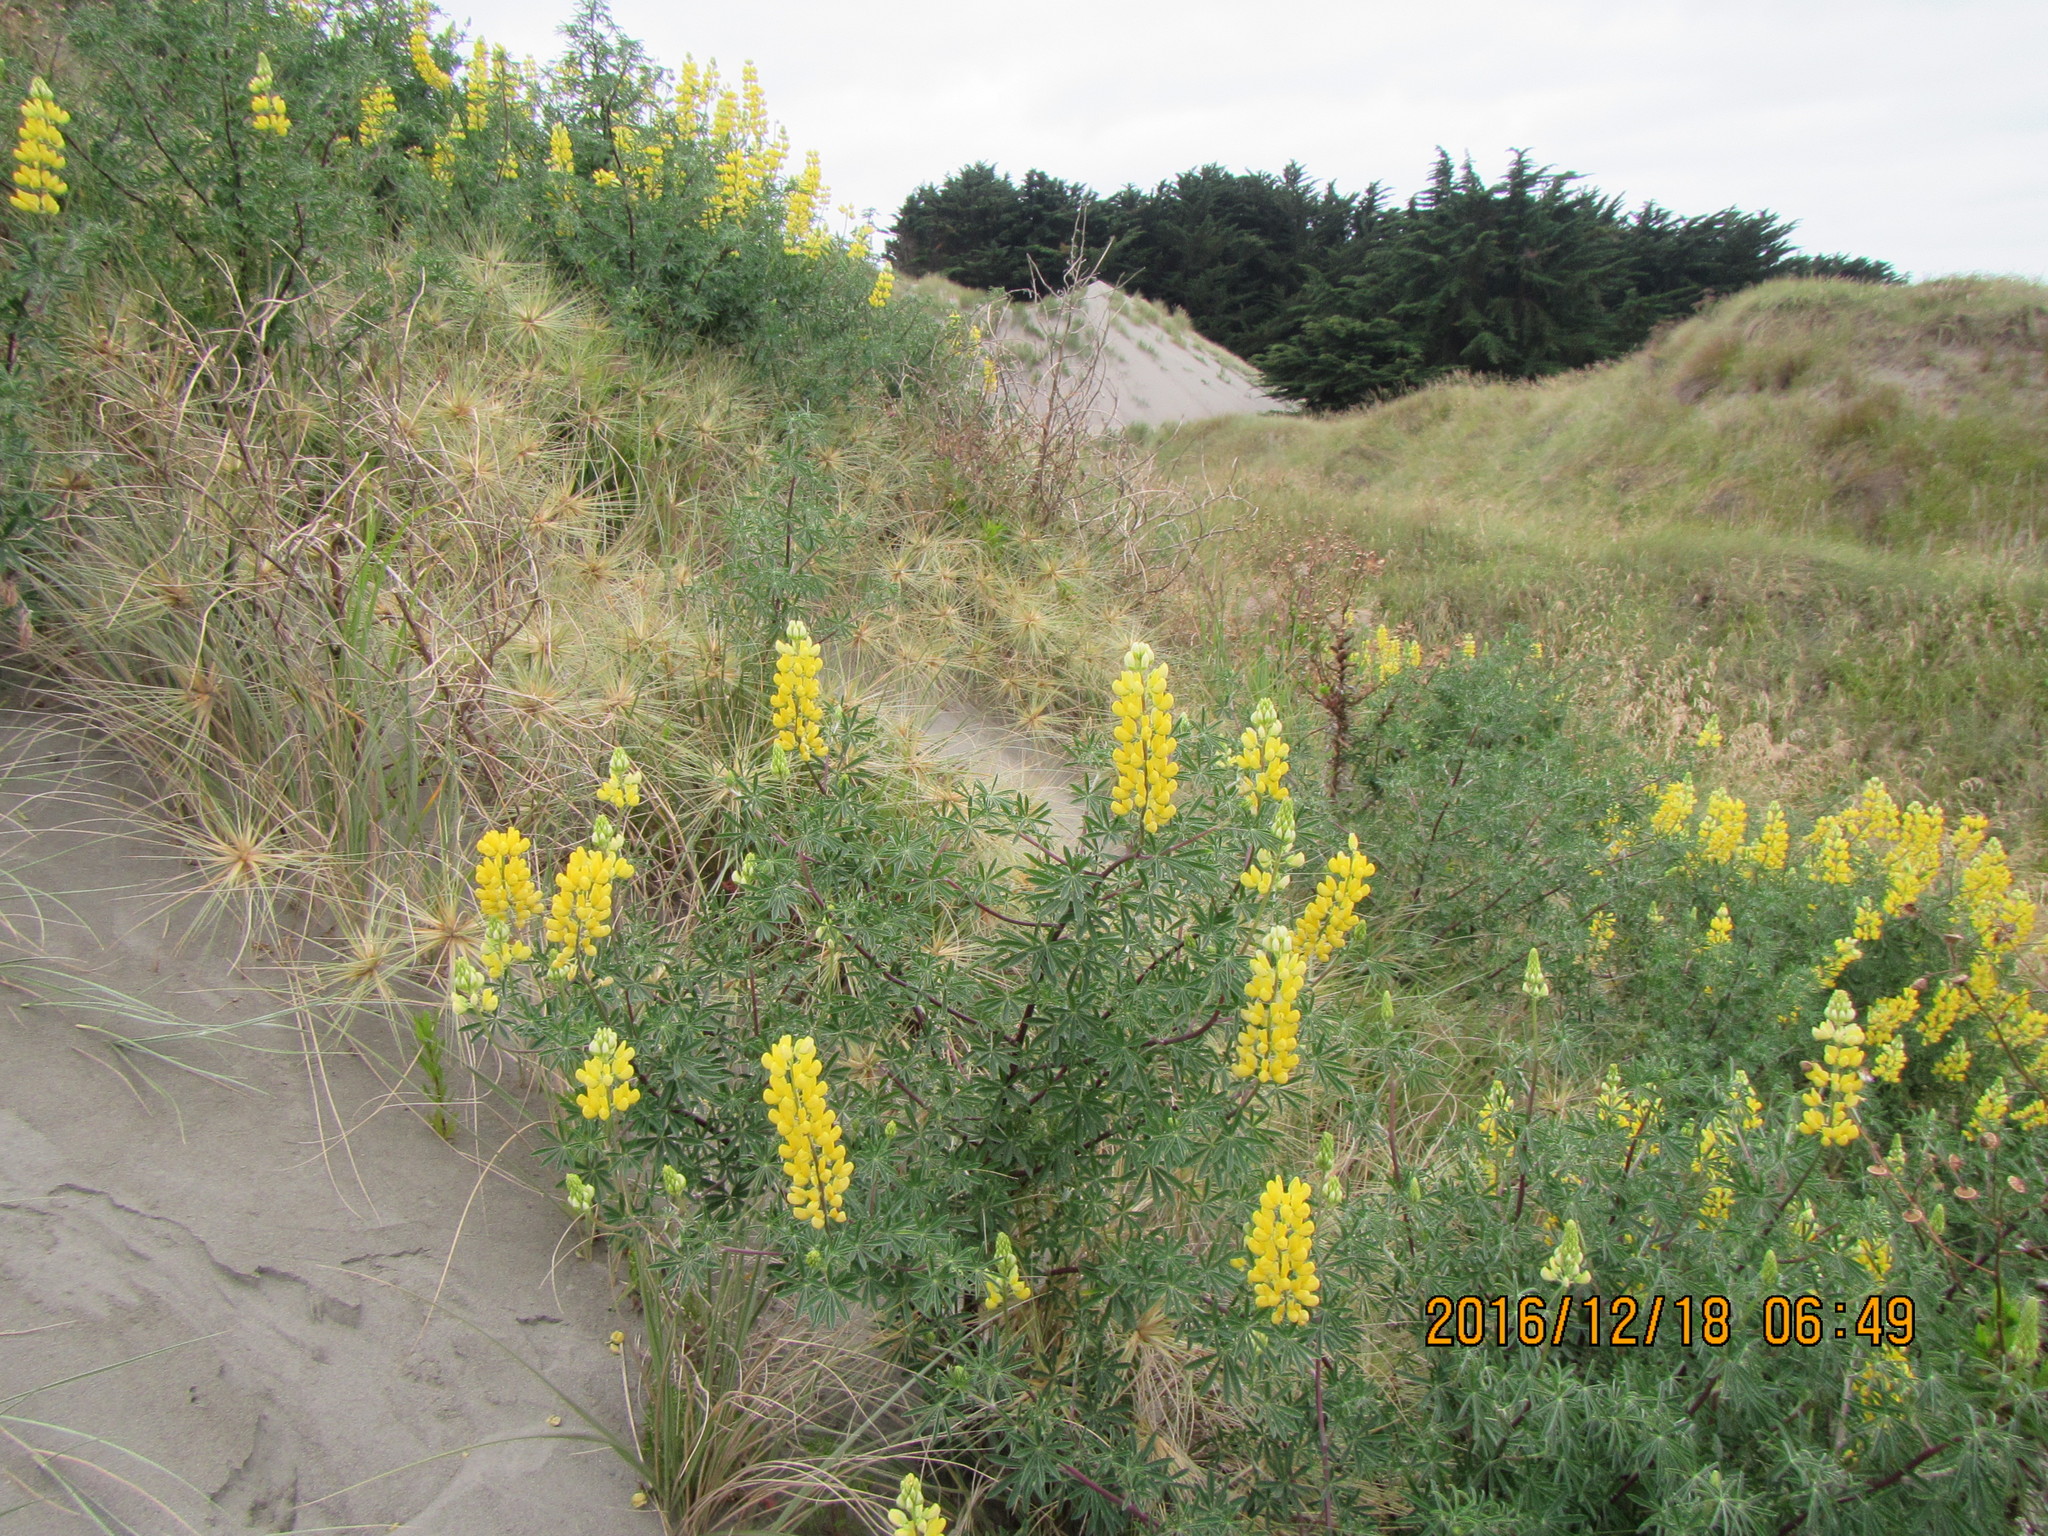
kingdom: Plantae
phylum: Tracheophyta
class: Magnoliopsida
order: Fabales
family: Fabaceae
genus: Lupinus
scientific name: Lupinus arboreus
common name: Yellow bush lupine
